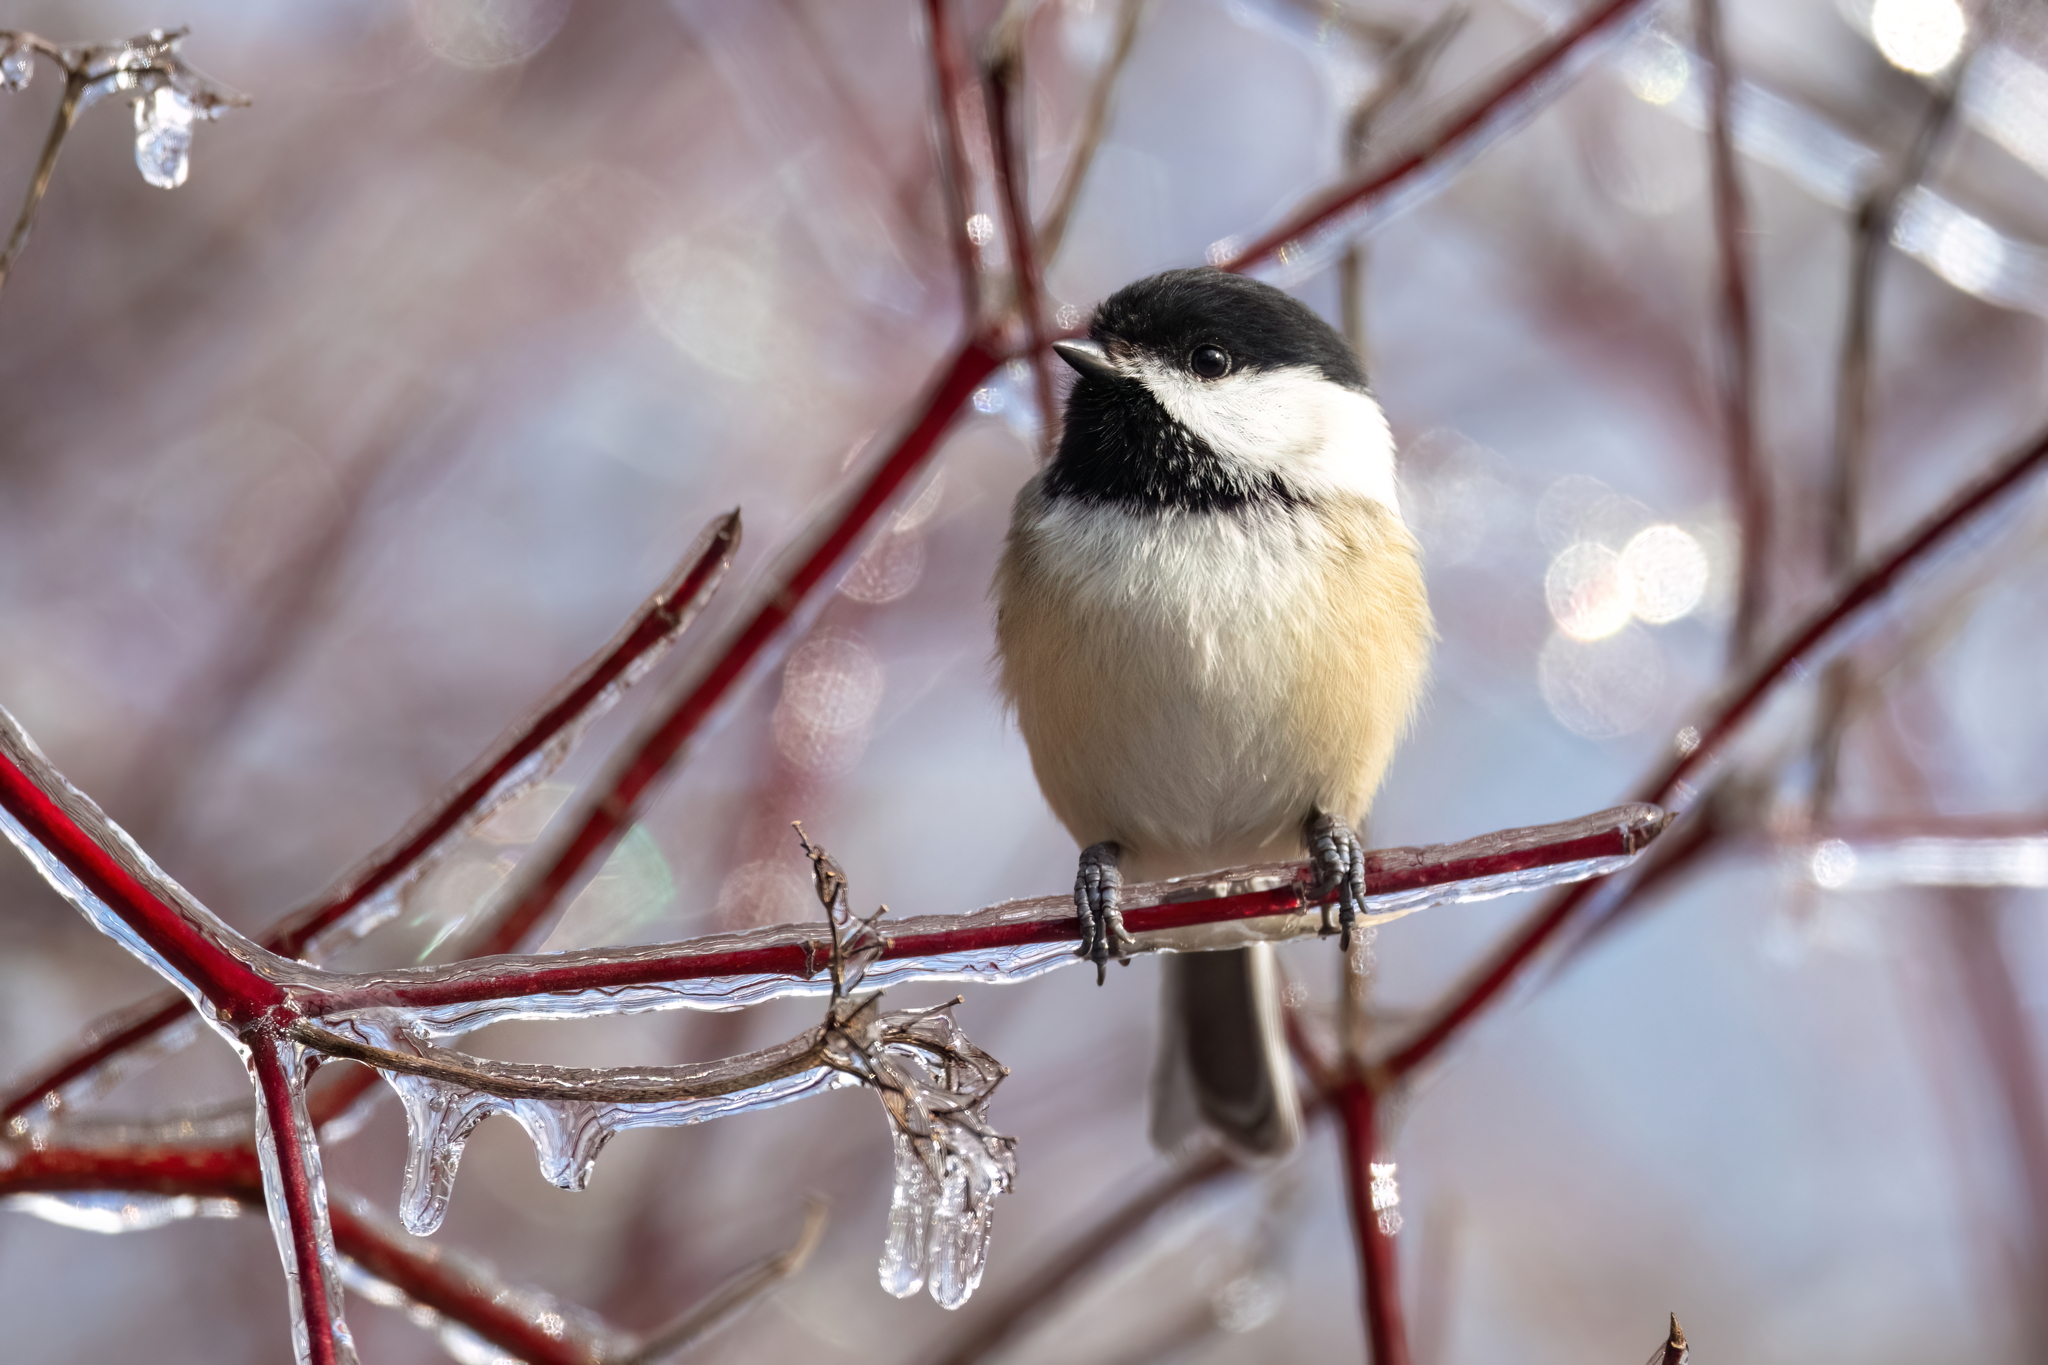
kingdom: Animalia
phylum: Chordata
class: Aves
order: Passeriformes
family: Paridae
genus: Poecile
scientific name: Poecile atricapillus
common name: Black-capped chickadee
